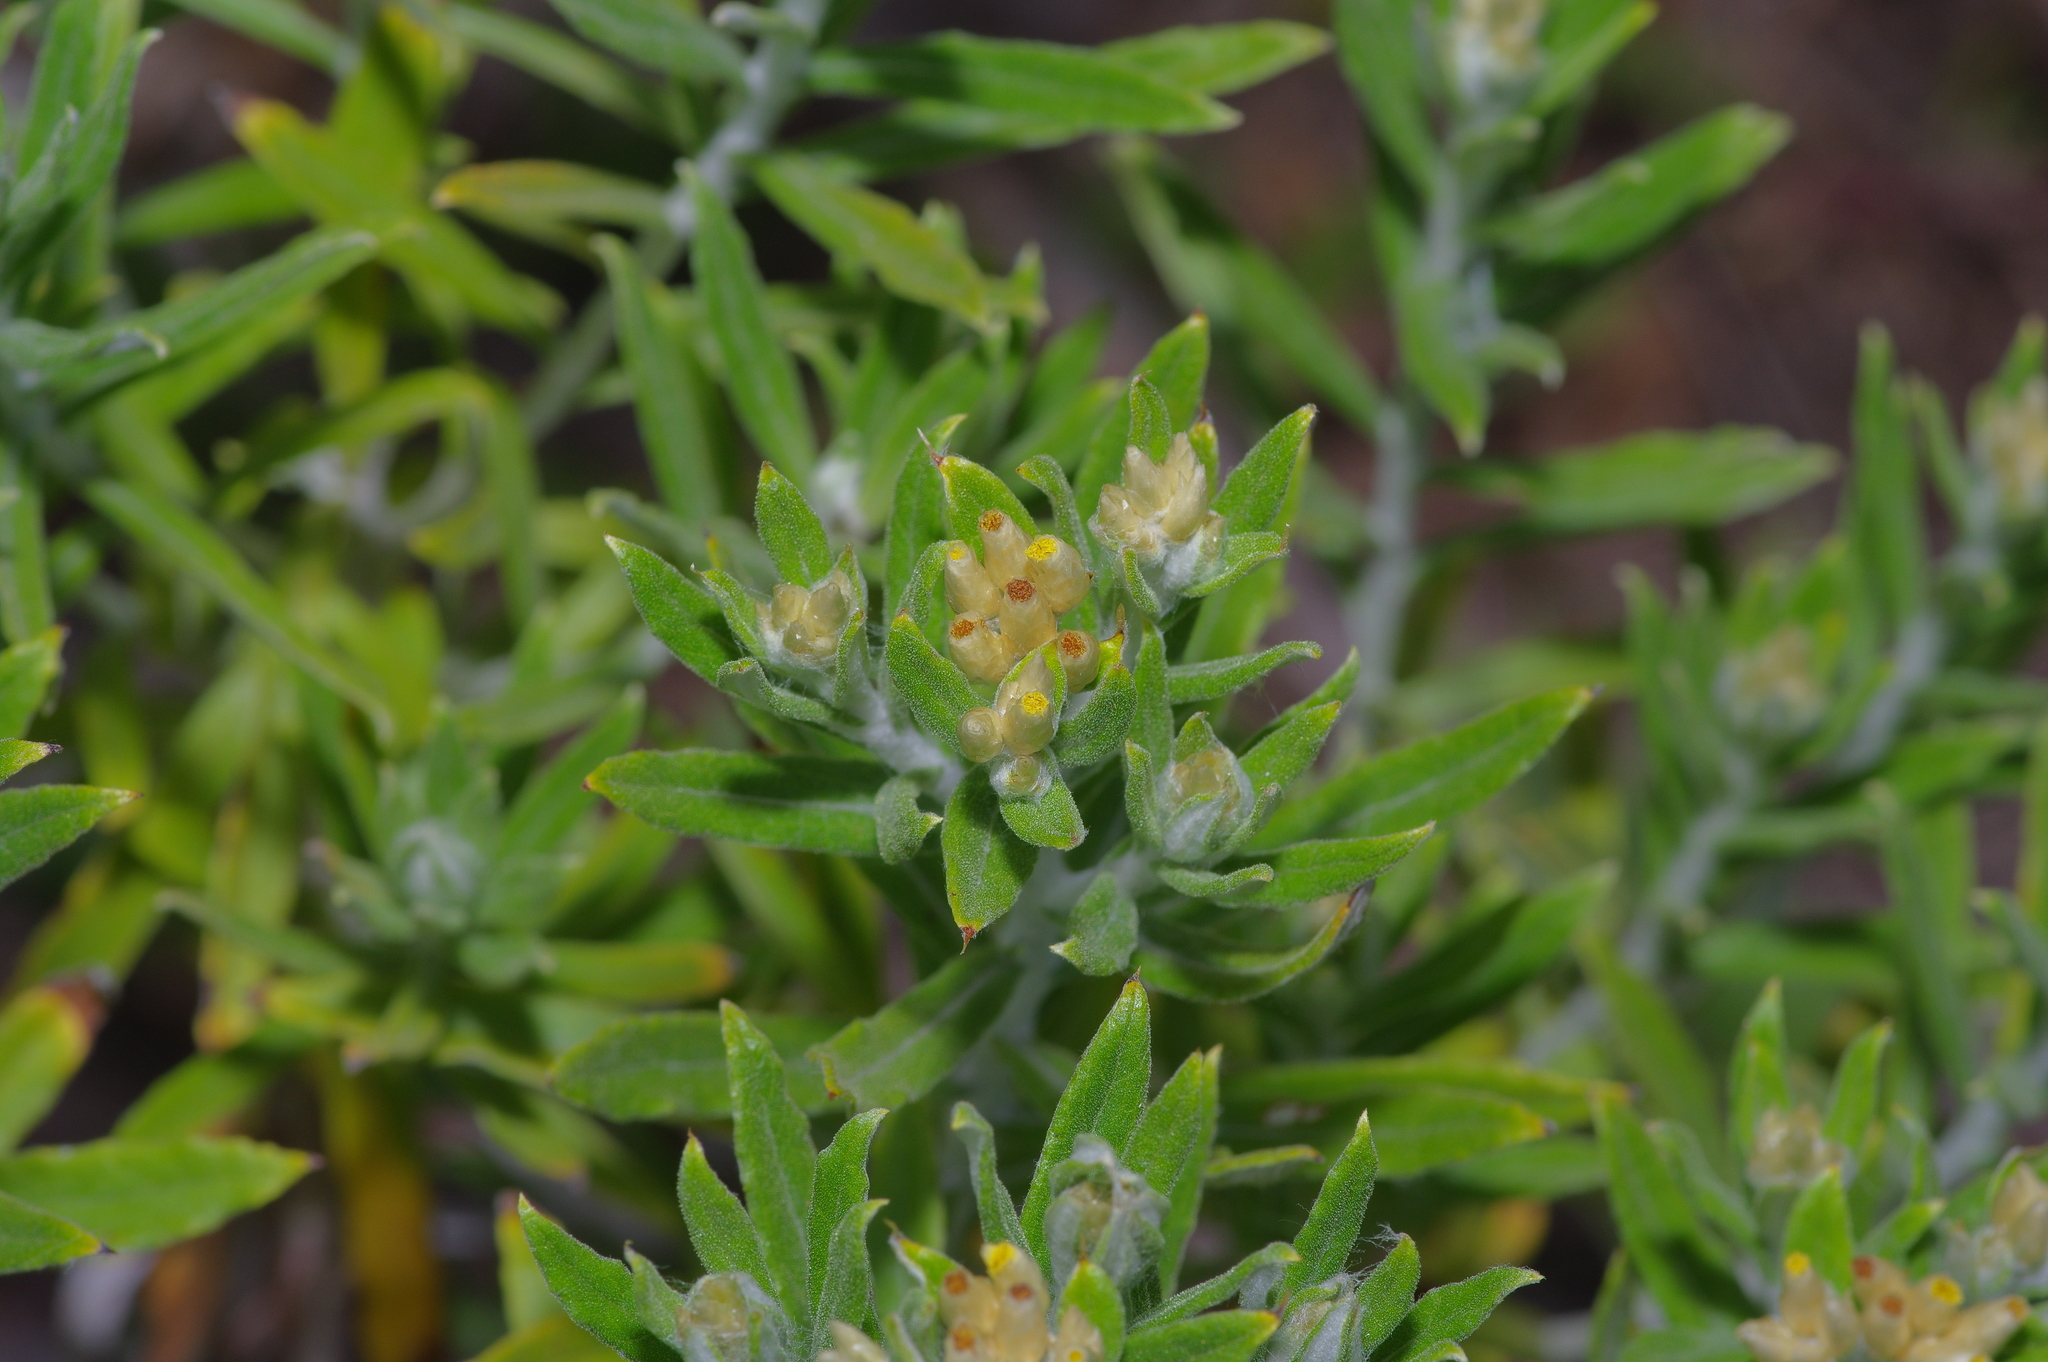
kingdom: Plantae
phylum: Tracheophyta
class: Magnoliopsida
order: Asterales
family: Asteraceae
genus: Pseudognaphalium
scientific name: Pseudognaphalium obtusifolium
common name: Eastern rabbit-tobacco
